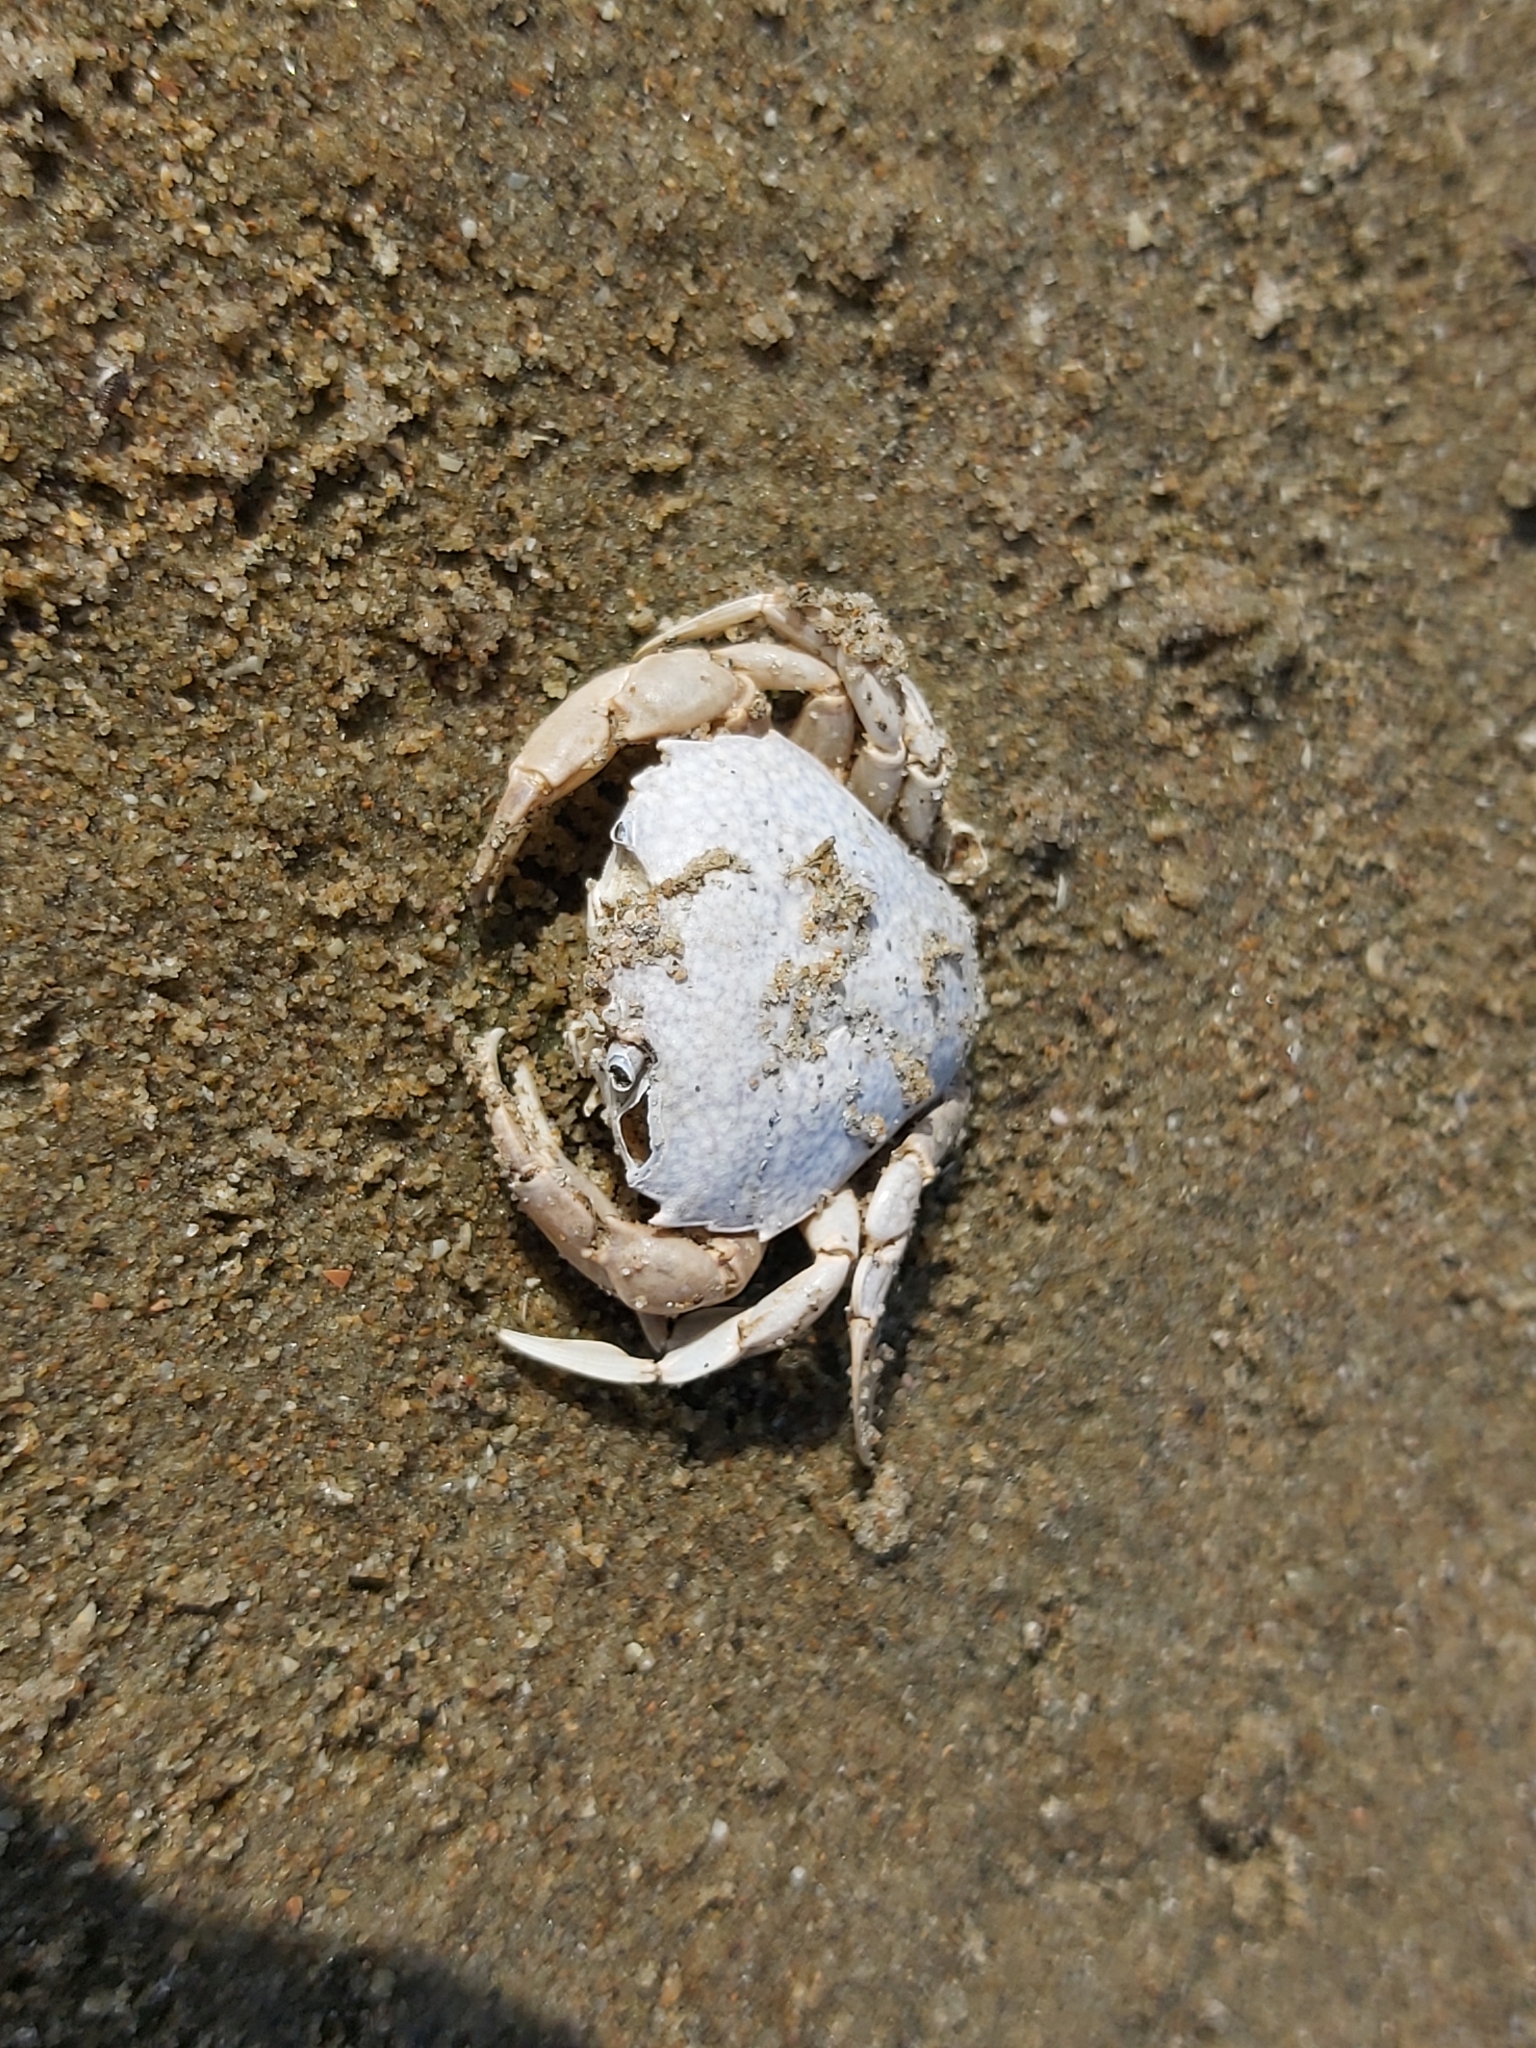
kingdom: Animalia
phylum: Arthropoda
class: Malacostraca
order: Decapoda
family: Carcinidae
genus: Portumnus
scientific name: Portumnus latipes
